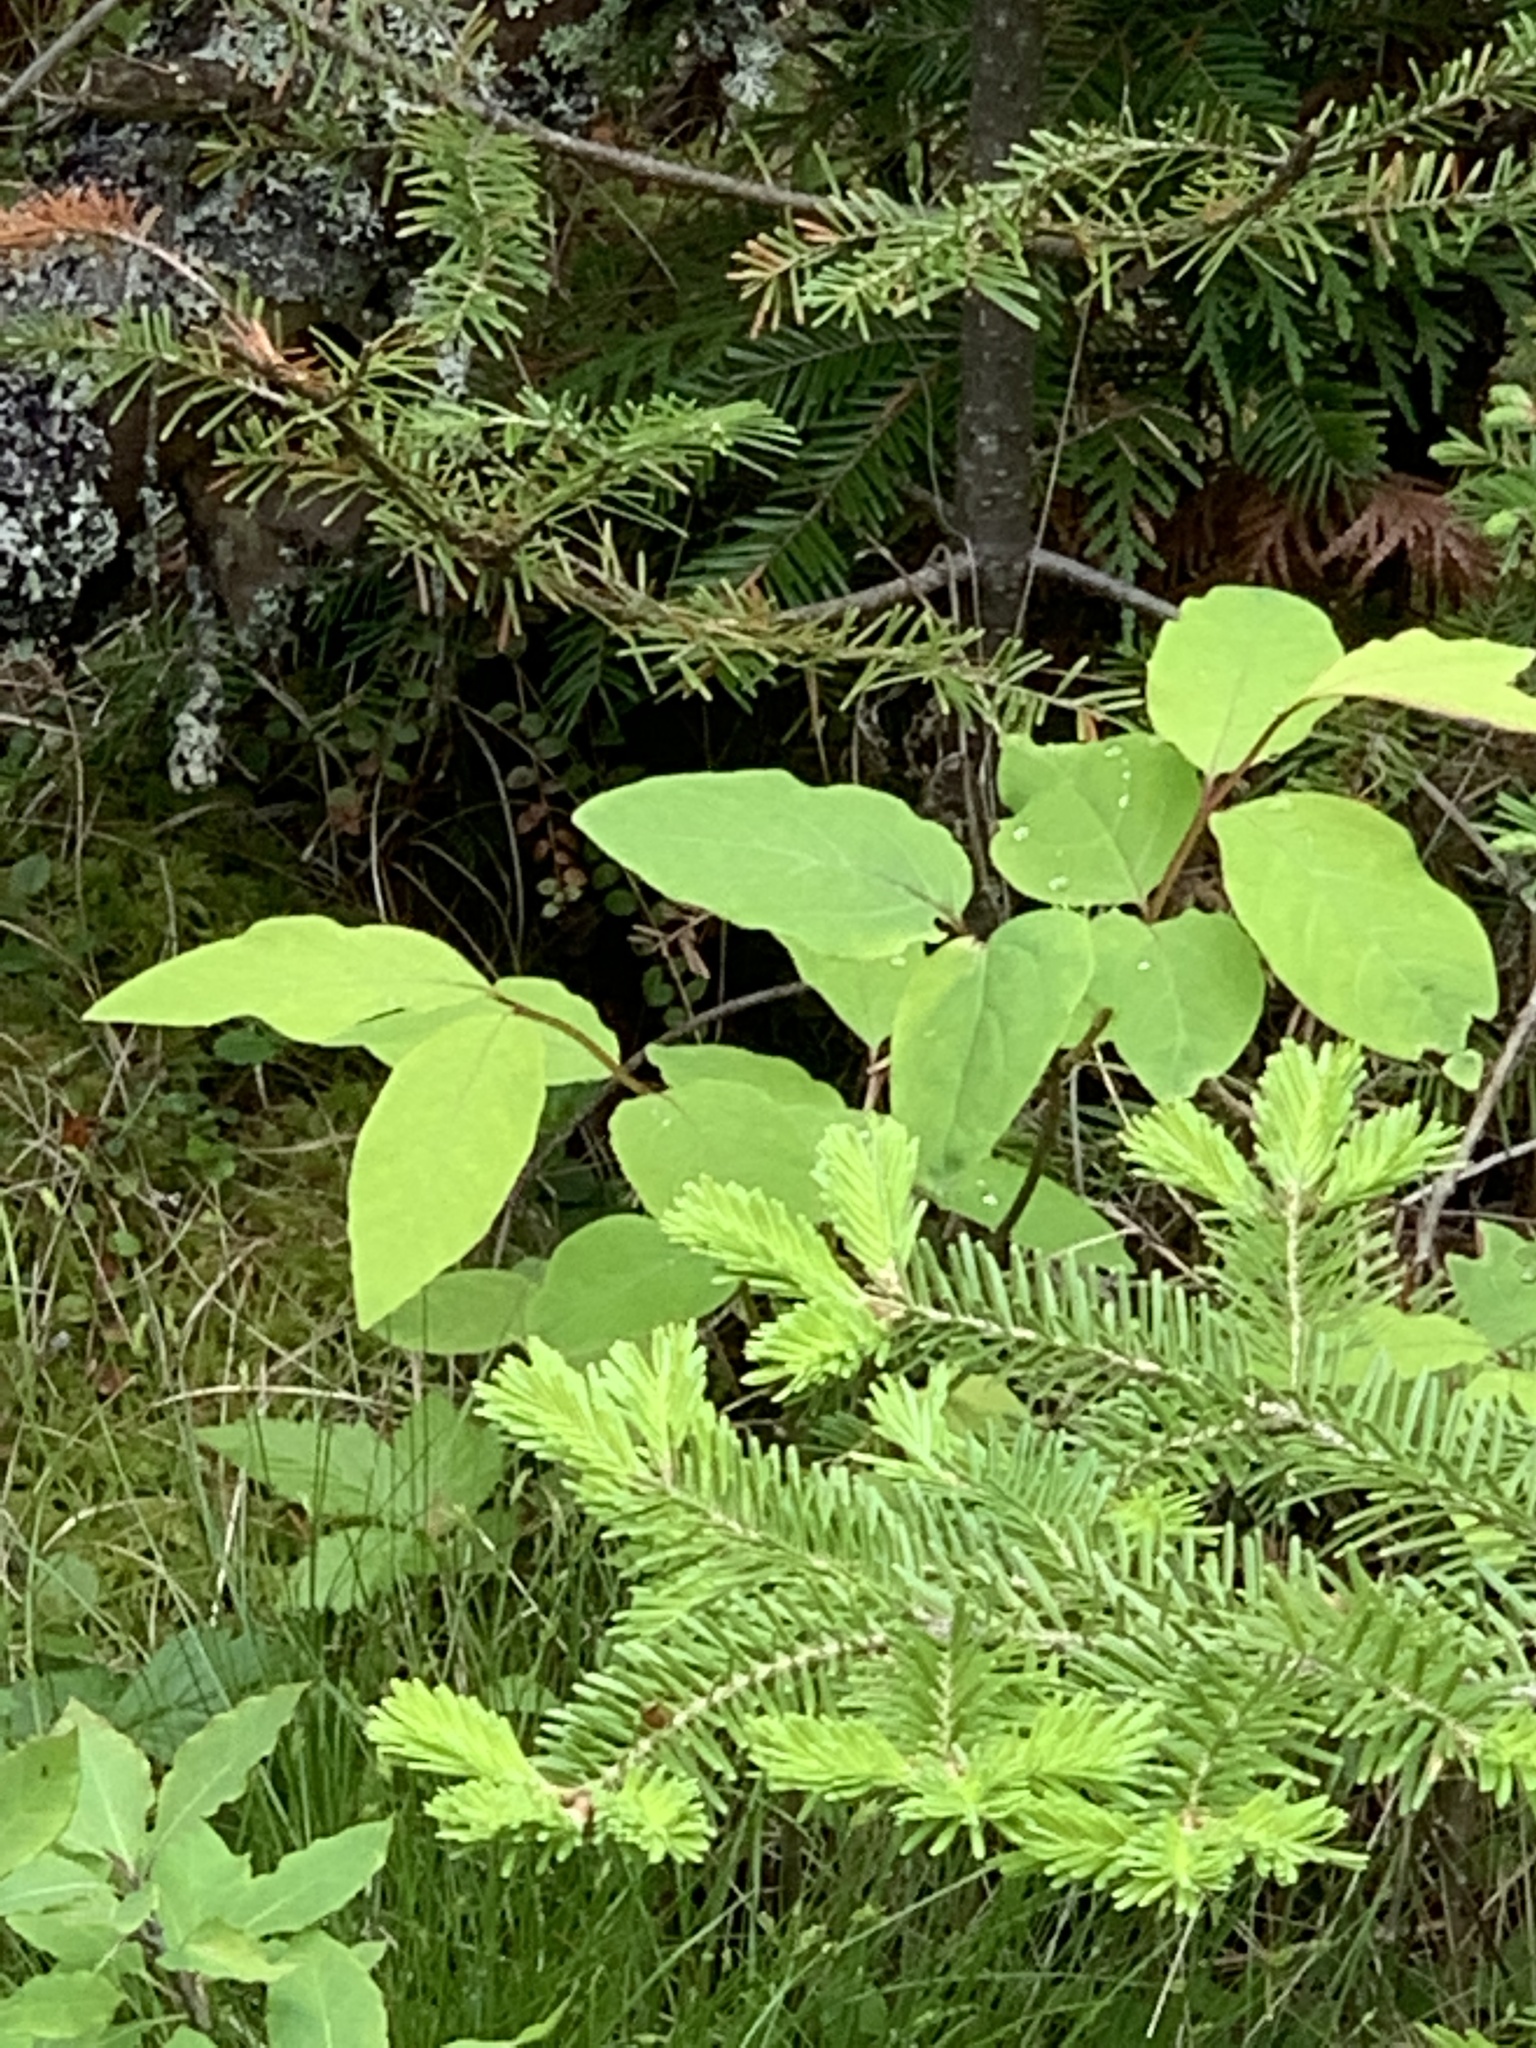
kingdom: Plantae
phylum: Tracheophyta
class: Magnoliopsida
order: Dipsacales
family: Caprifoliaceae
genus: Lonicera
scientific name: Lonicera canadensis
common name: American fly-honeysuckle
